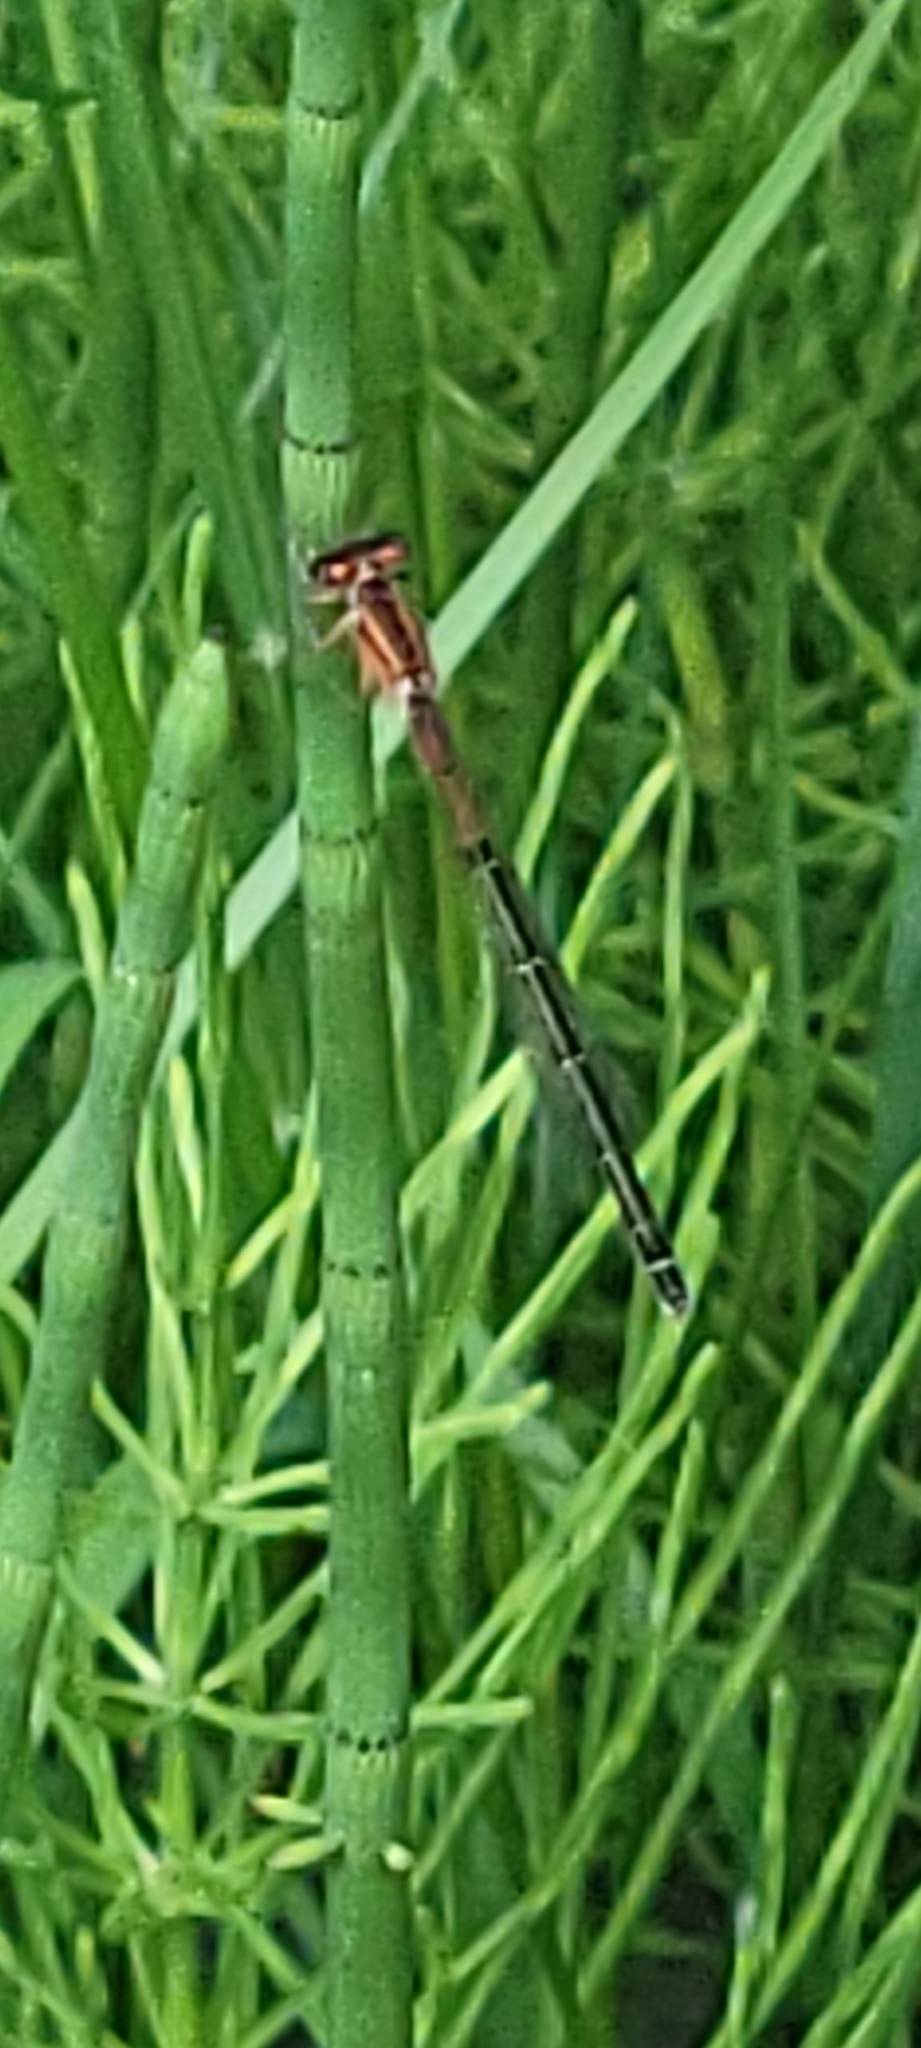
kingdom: Animalia
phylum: Arthropoda
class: Insecta
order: Odonata
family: Coenagrionidae
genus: Ischnura
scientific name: Ischnura verticalis
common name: Eastern forktail
